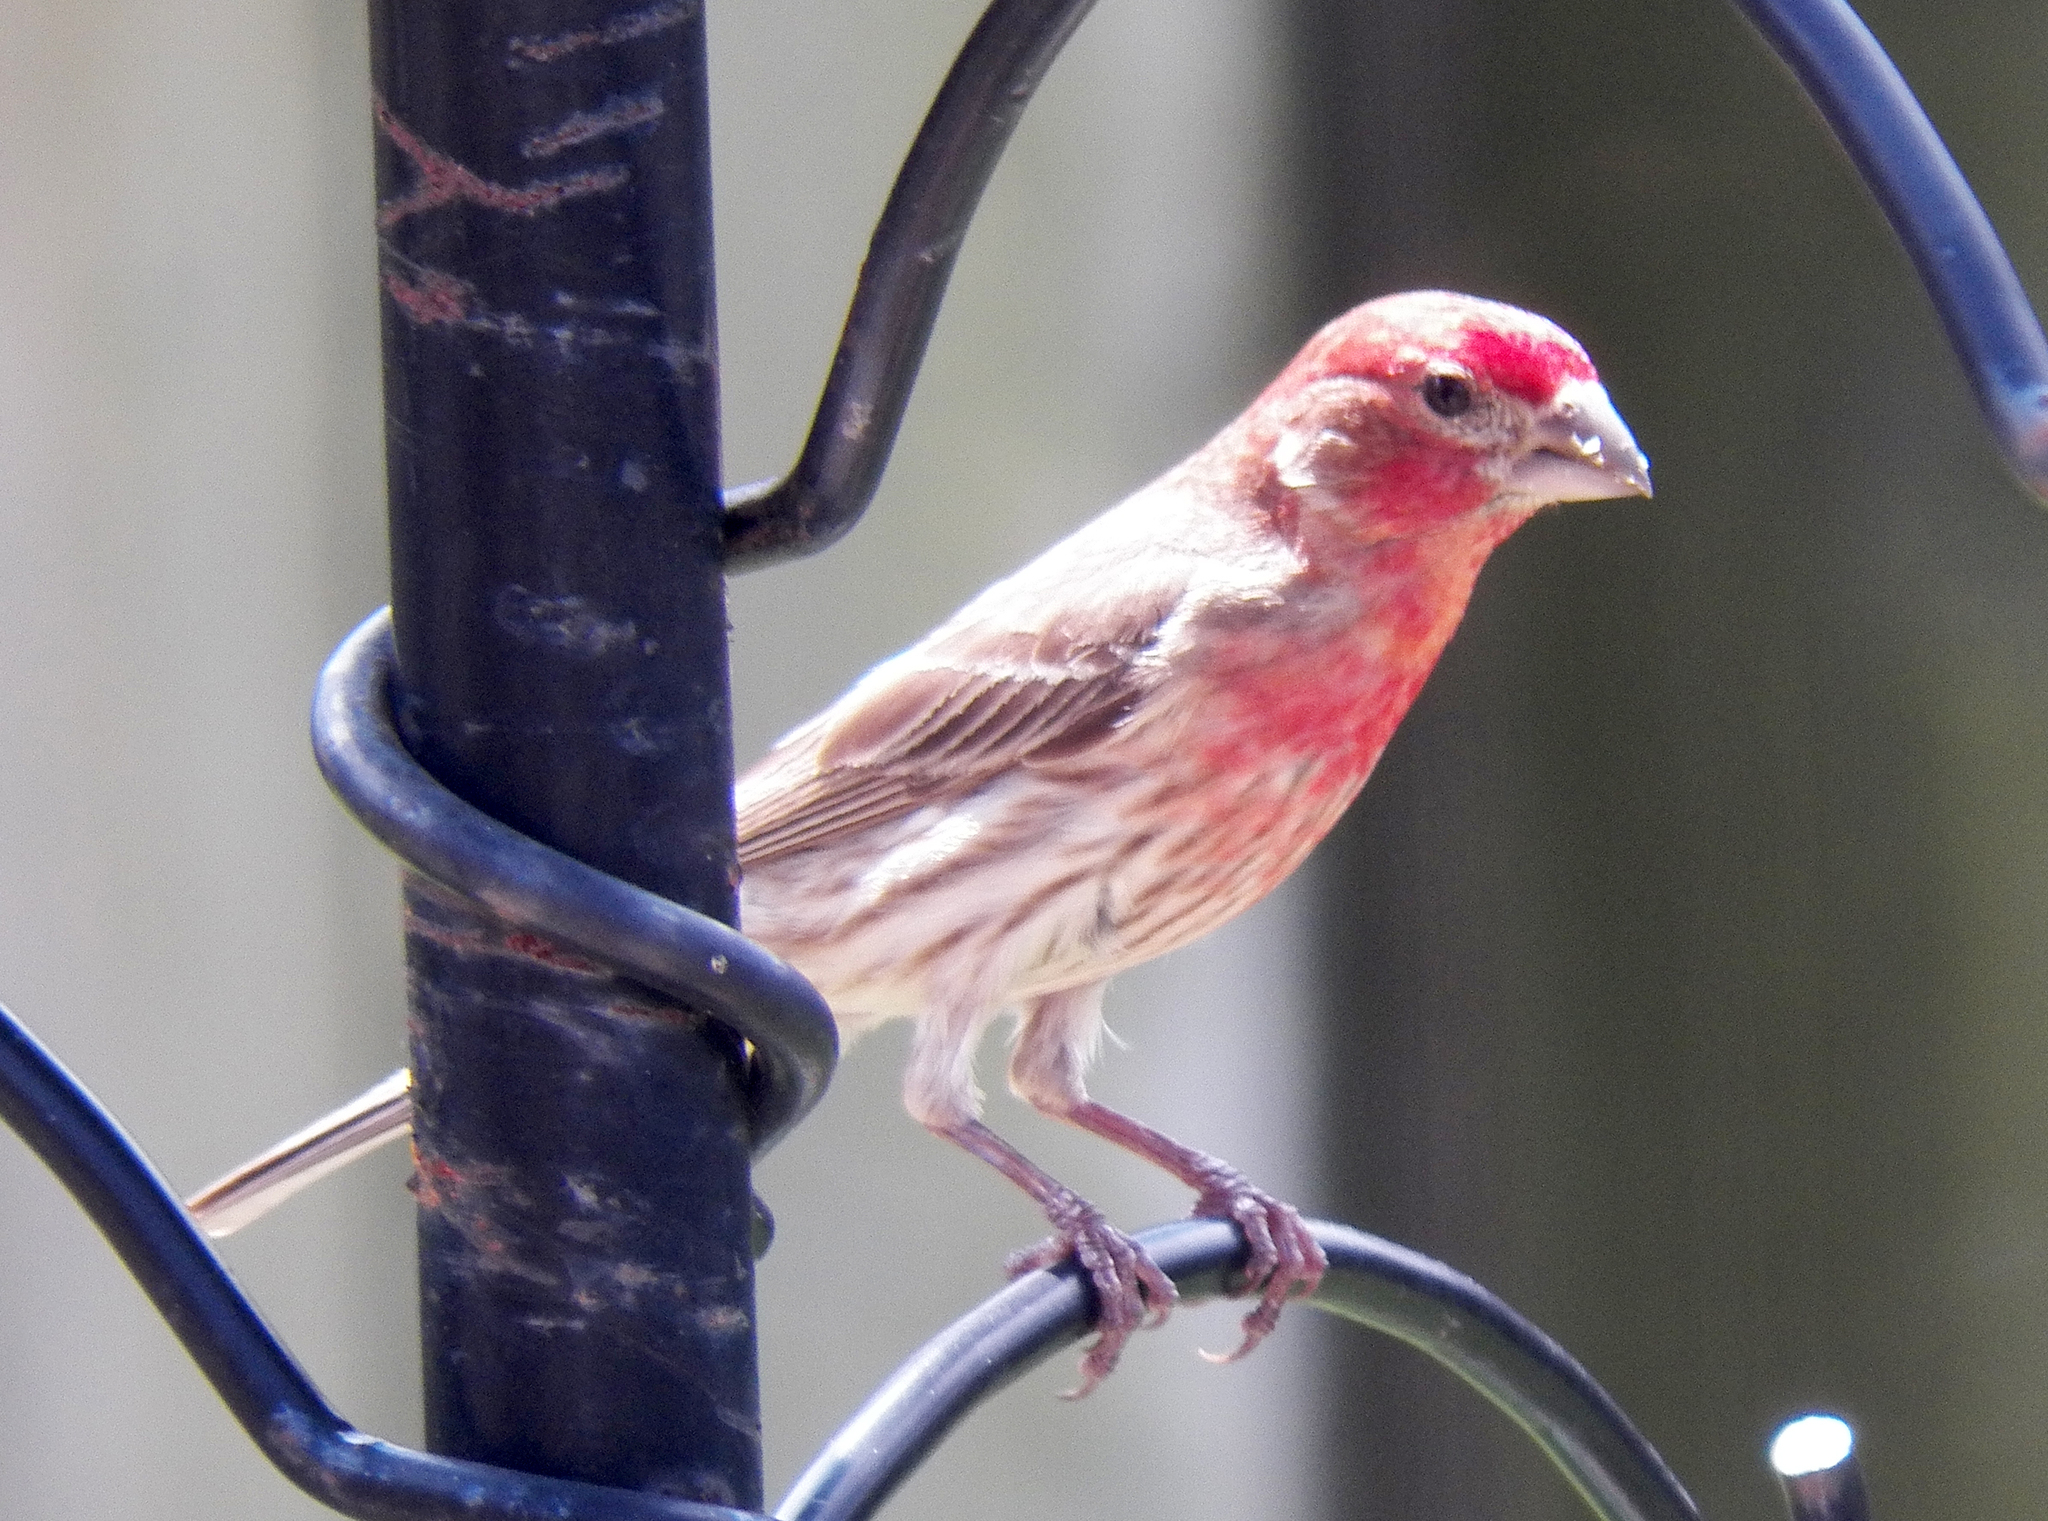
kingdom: Animalia
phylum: Chordata
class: Aves
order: Passeriformes
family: Fringillidae
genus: Haemorhous
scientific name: Haemorhous mexicanus
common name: House finch
